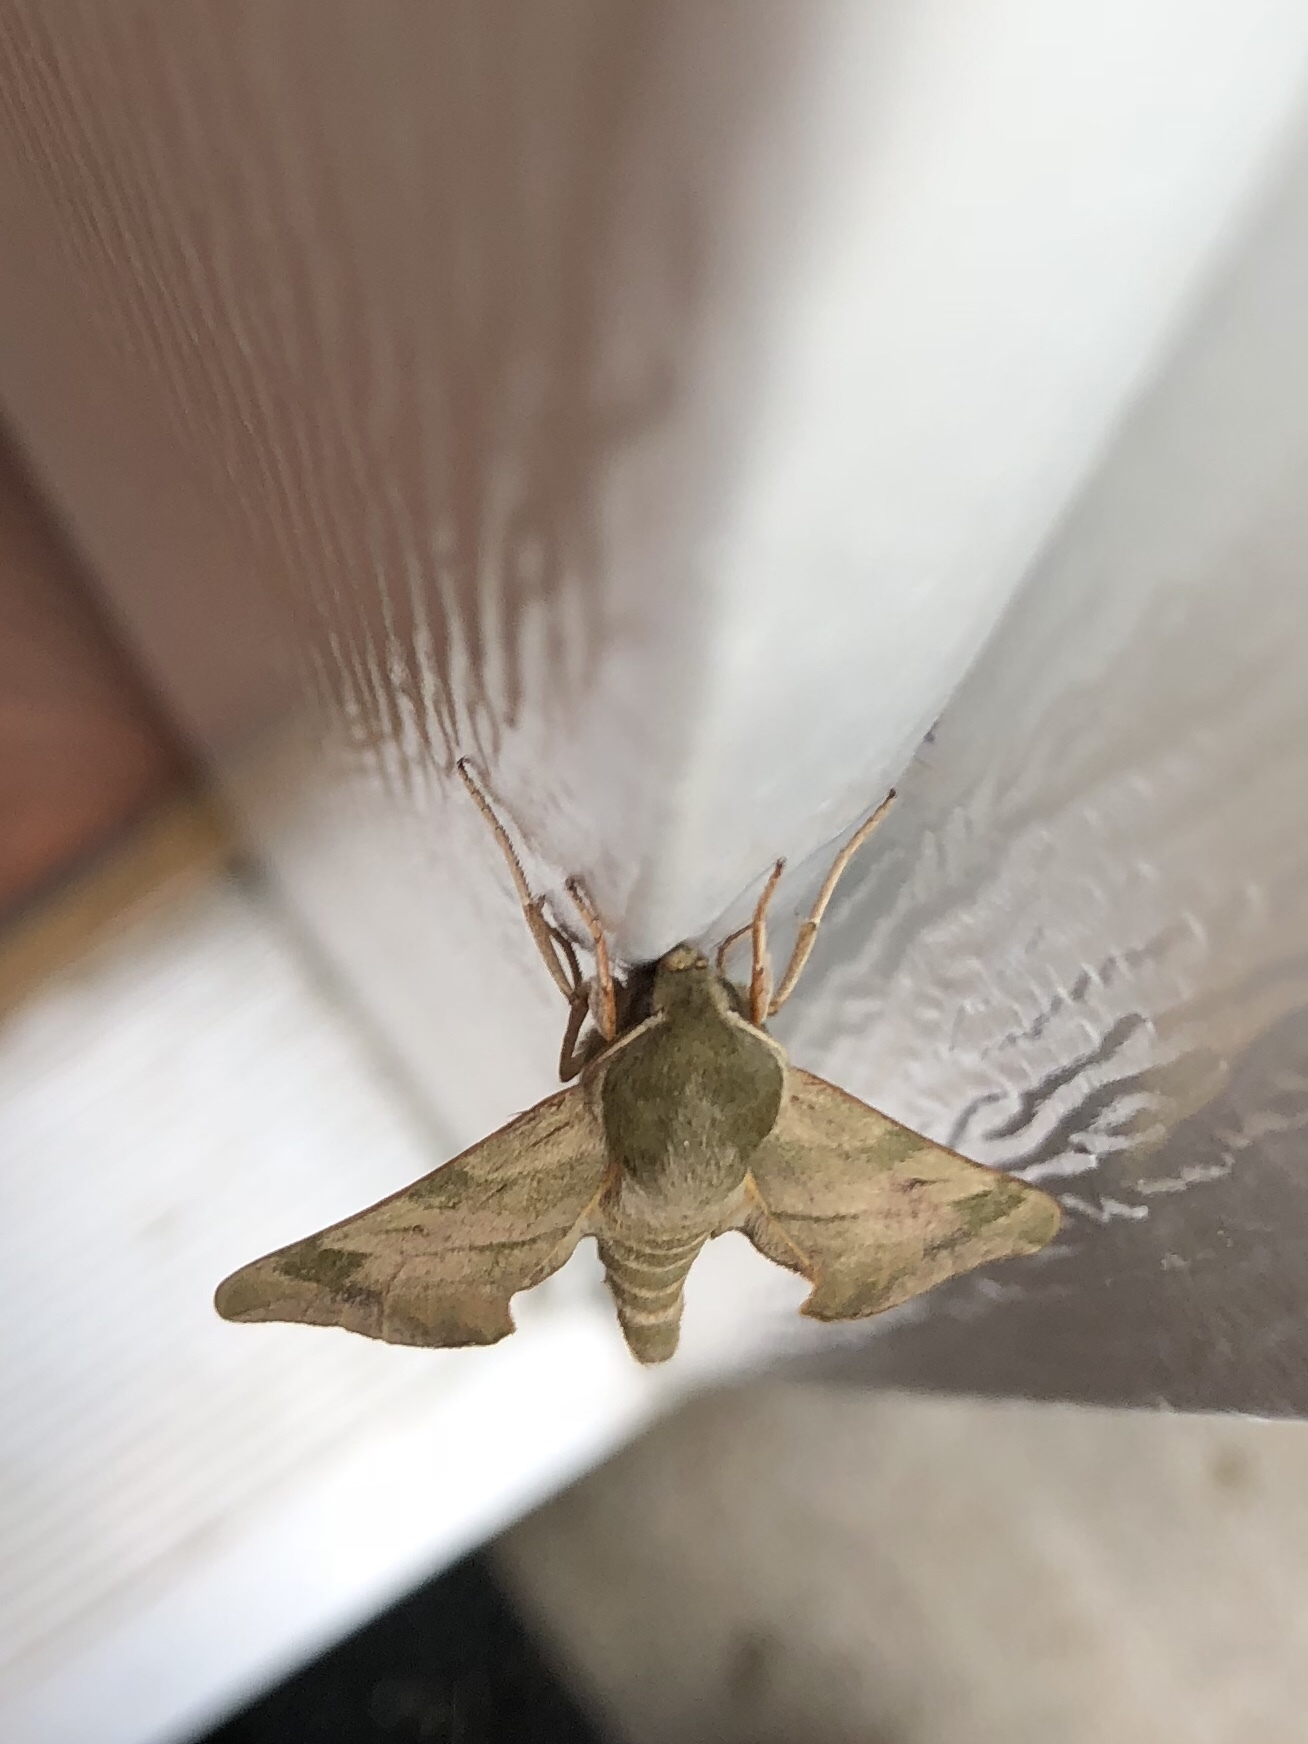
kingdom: Animalia
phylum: Arthropoda
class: Insecta
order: Lepidoptera
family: Sphingidae
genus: Darapsa
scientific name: Darapsa myron
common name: Hog sphinx
